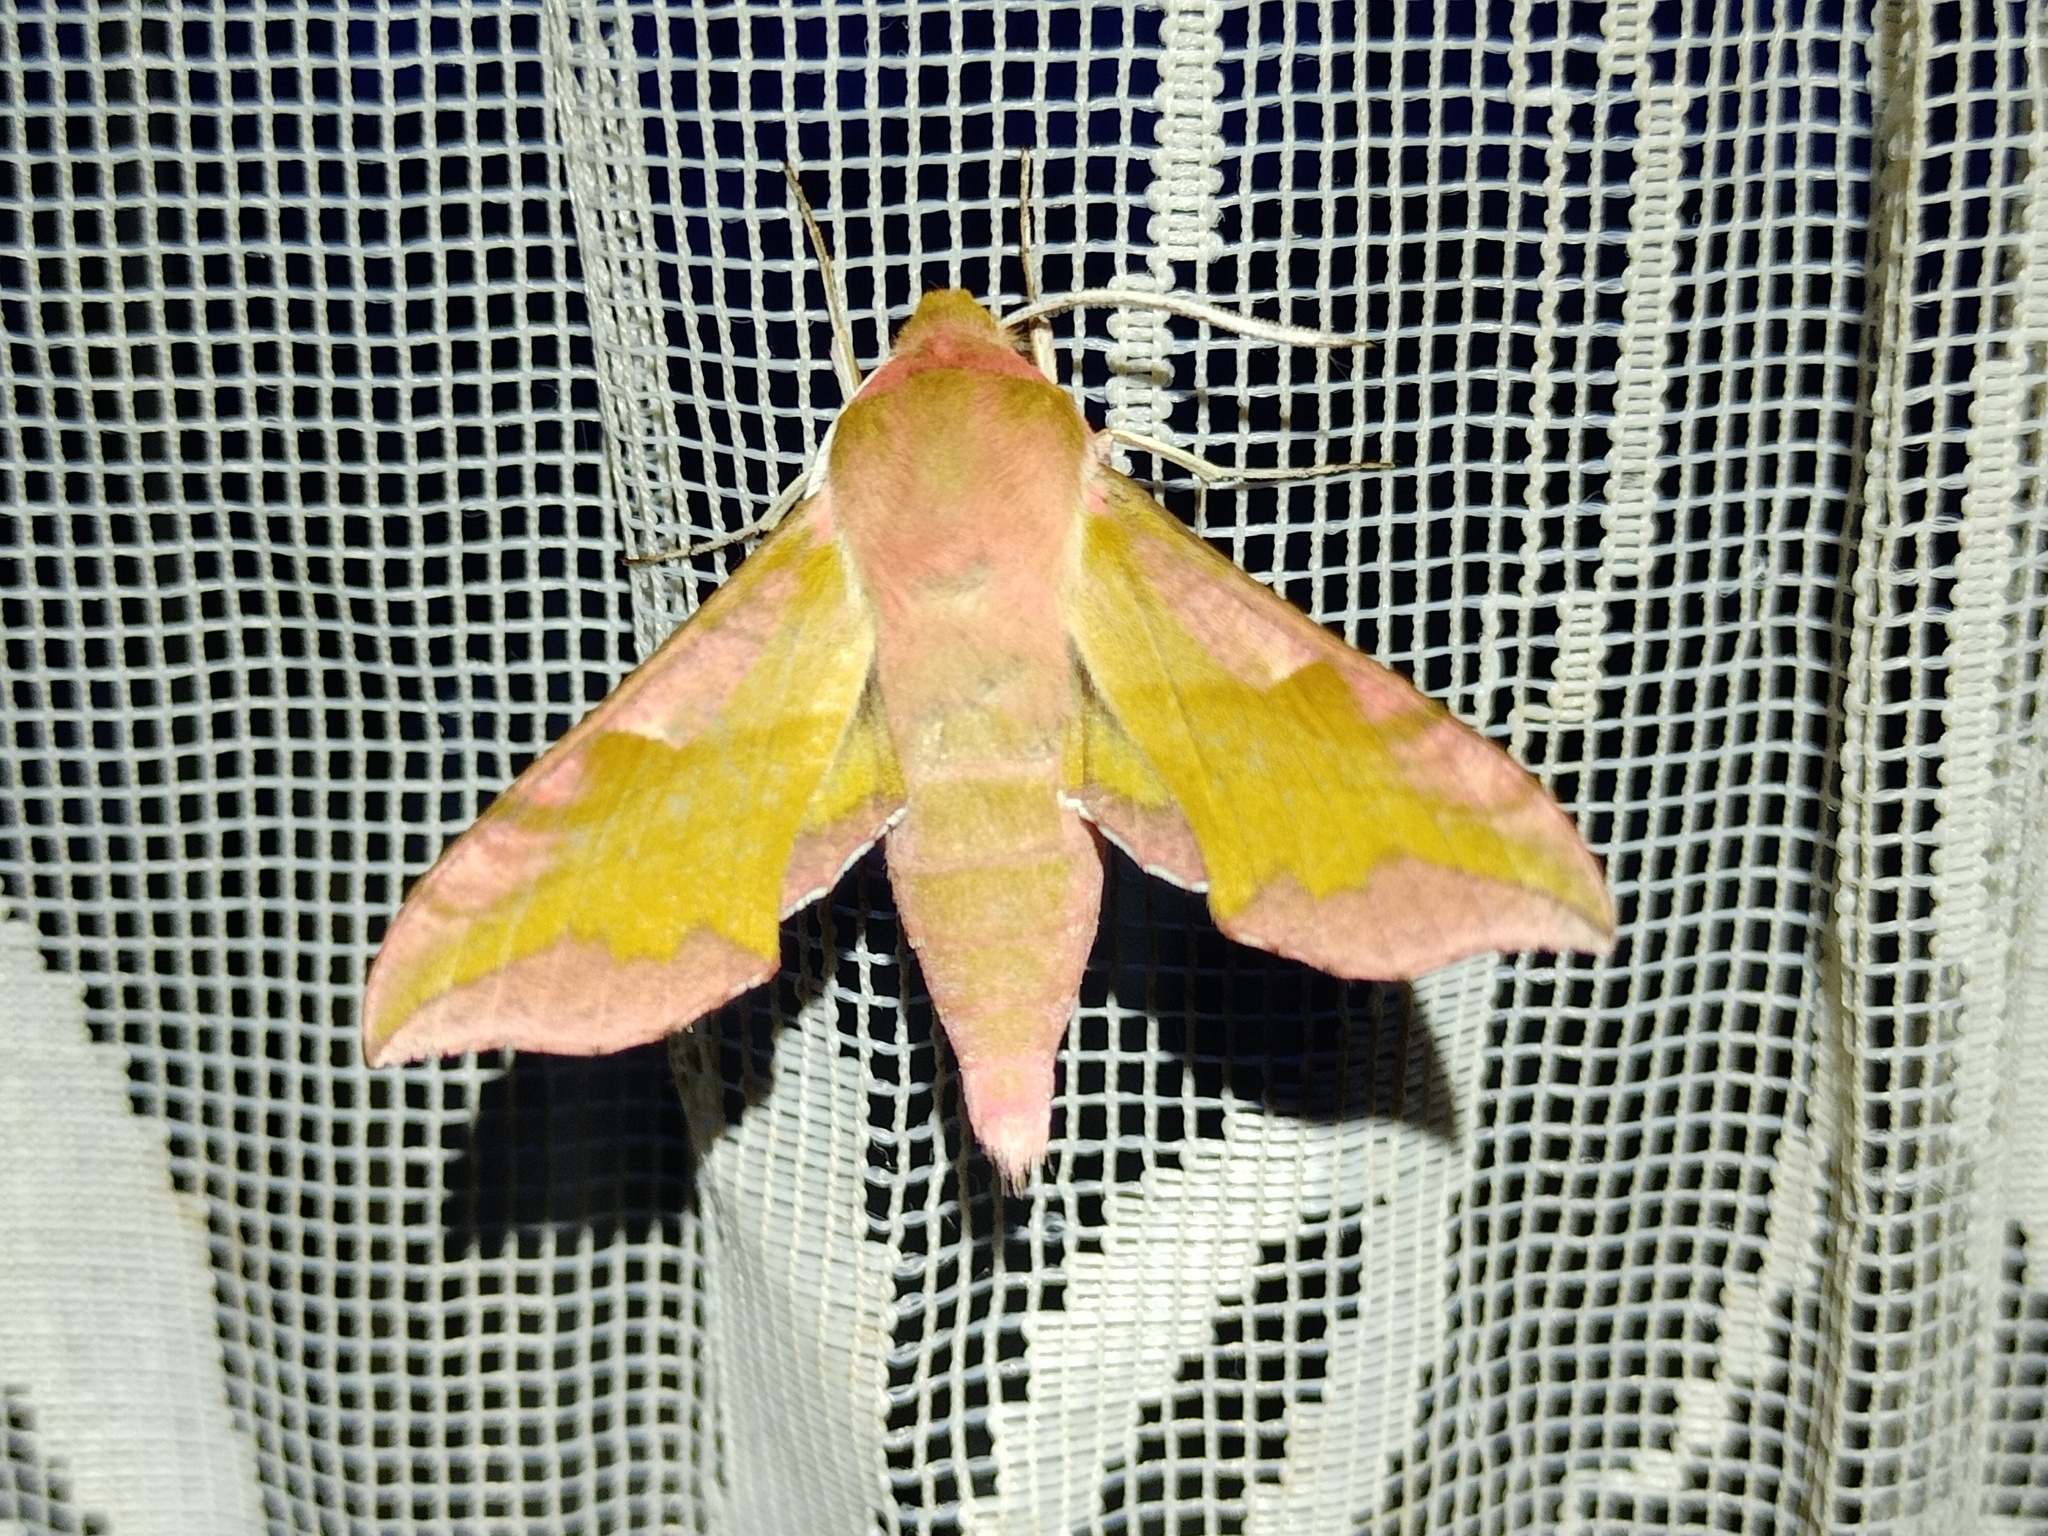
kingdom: Animalia
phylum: Arthropoda
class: Insecta
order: Lepidoptera
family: Sphingidae
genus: Deilephila
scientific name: Deilephila porcellus
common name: Small elephant hawk-moth
